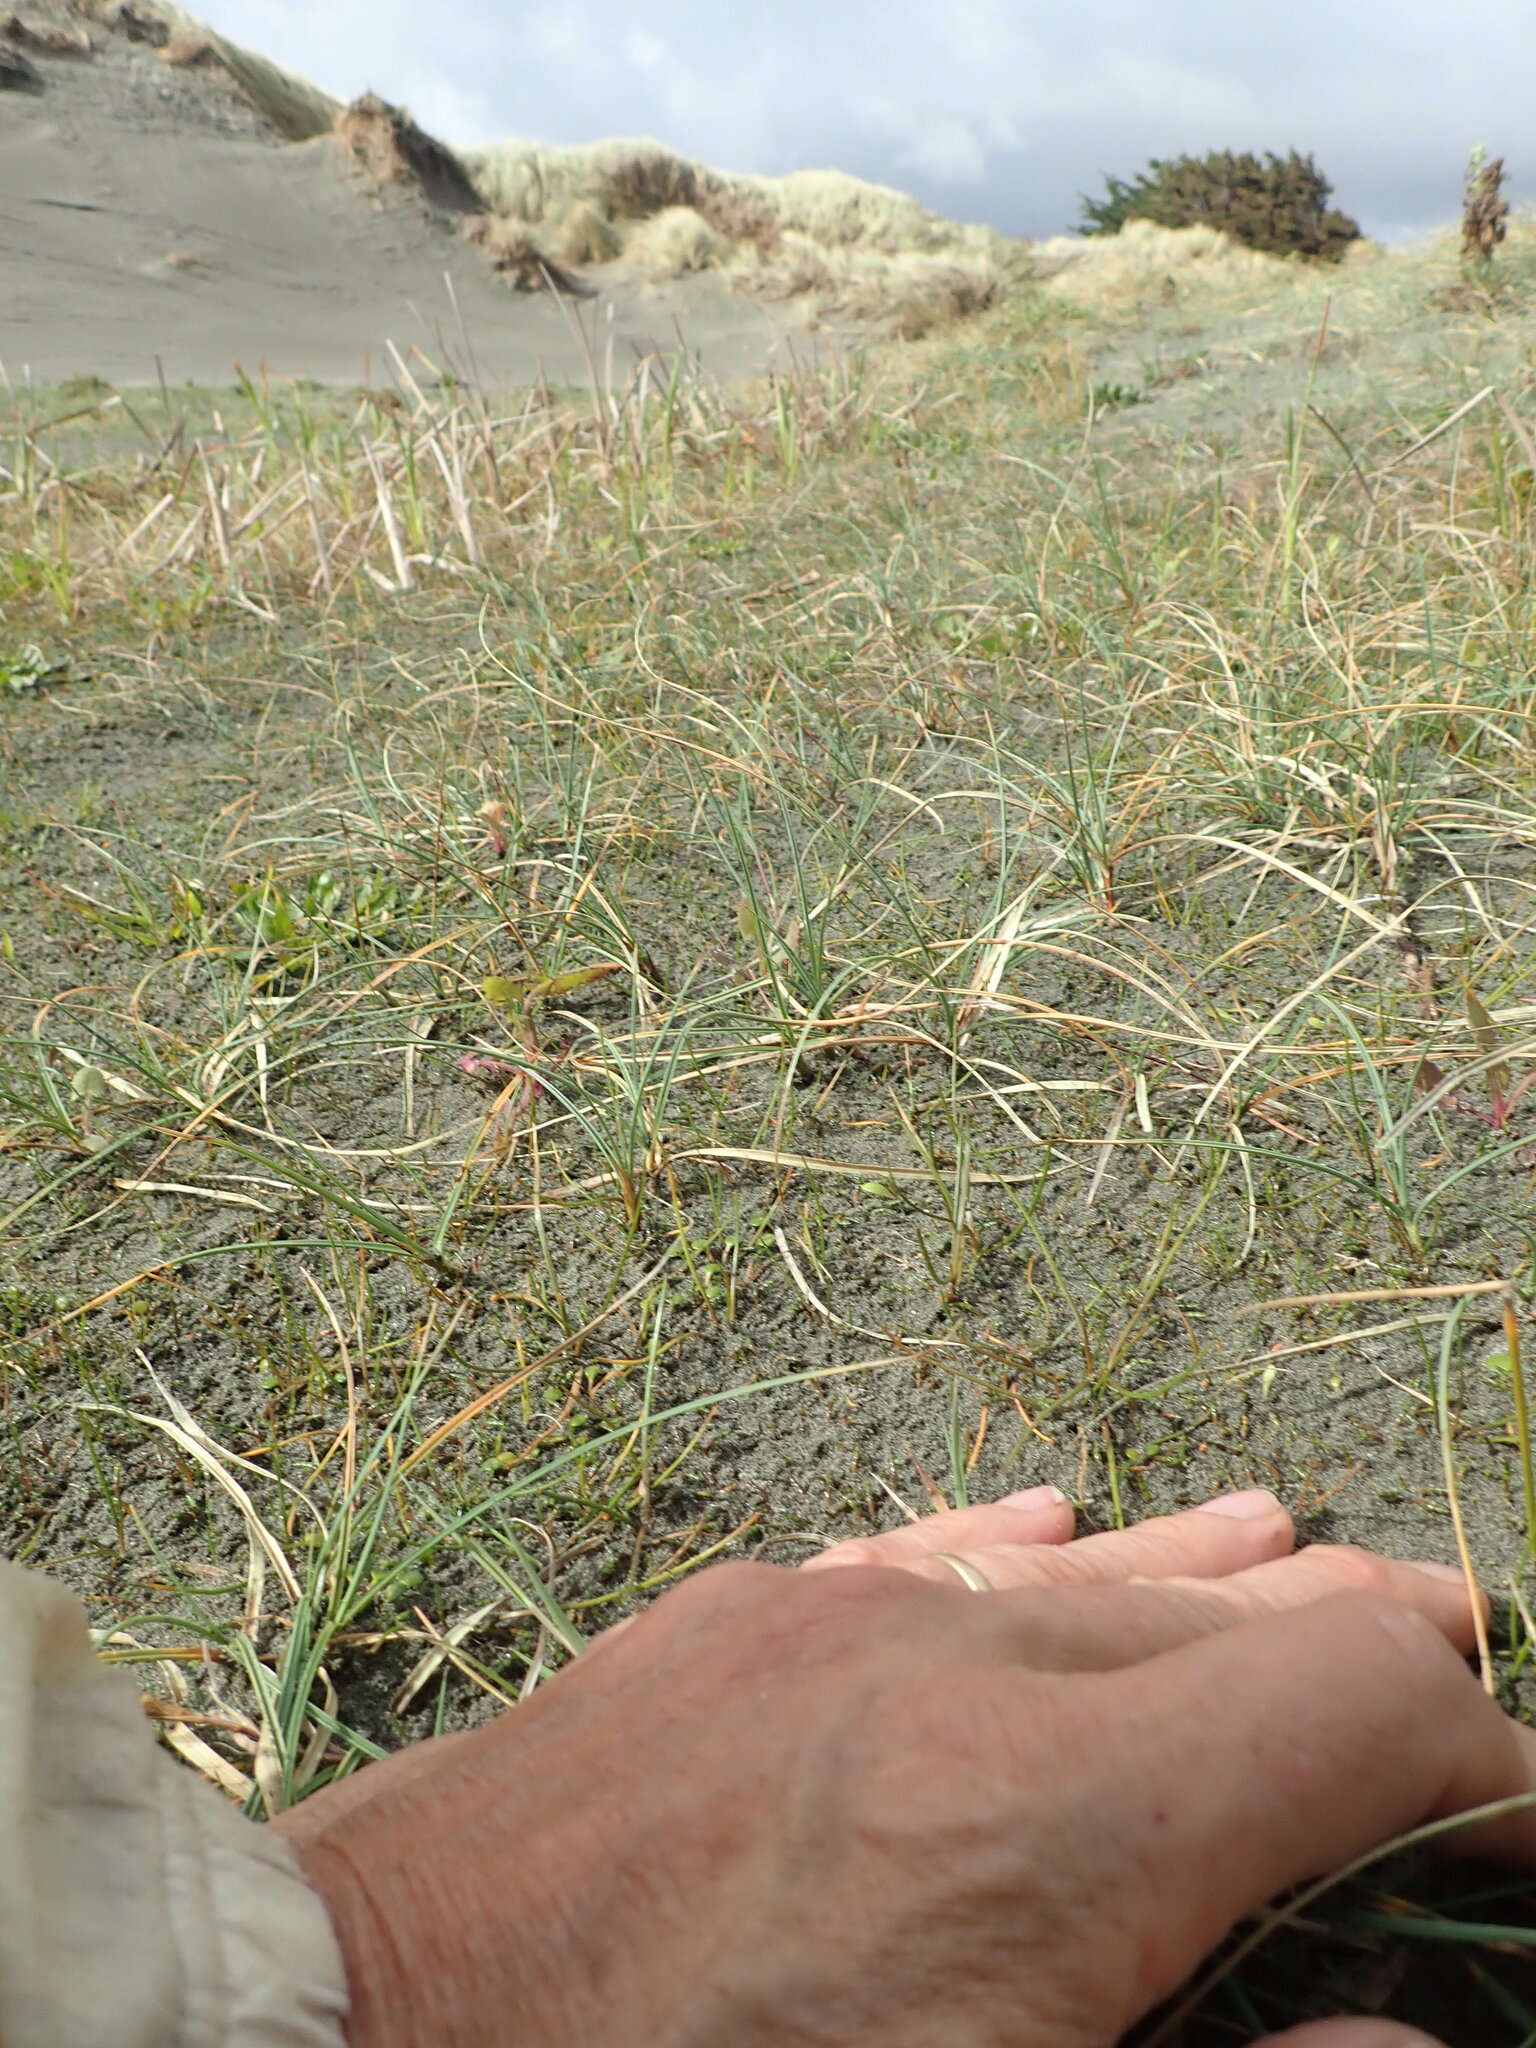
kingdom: Plantae
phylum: Tracheophyta
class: Liliopsida
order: Alismatales
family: Juncaginaceae
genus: Triglochin
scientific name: Triglochin striata
